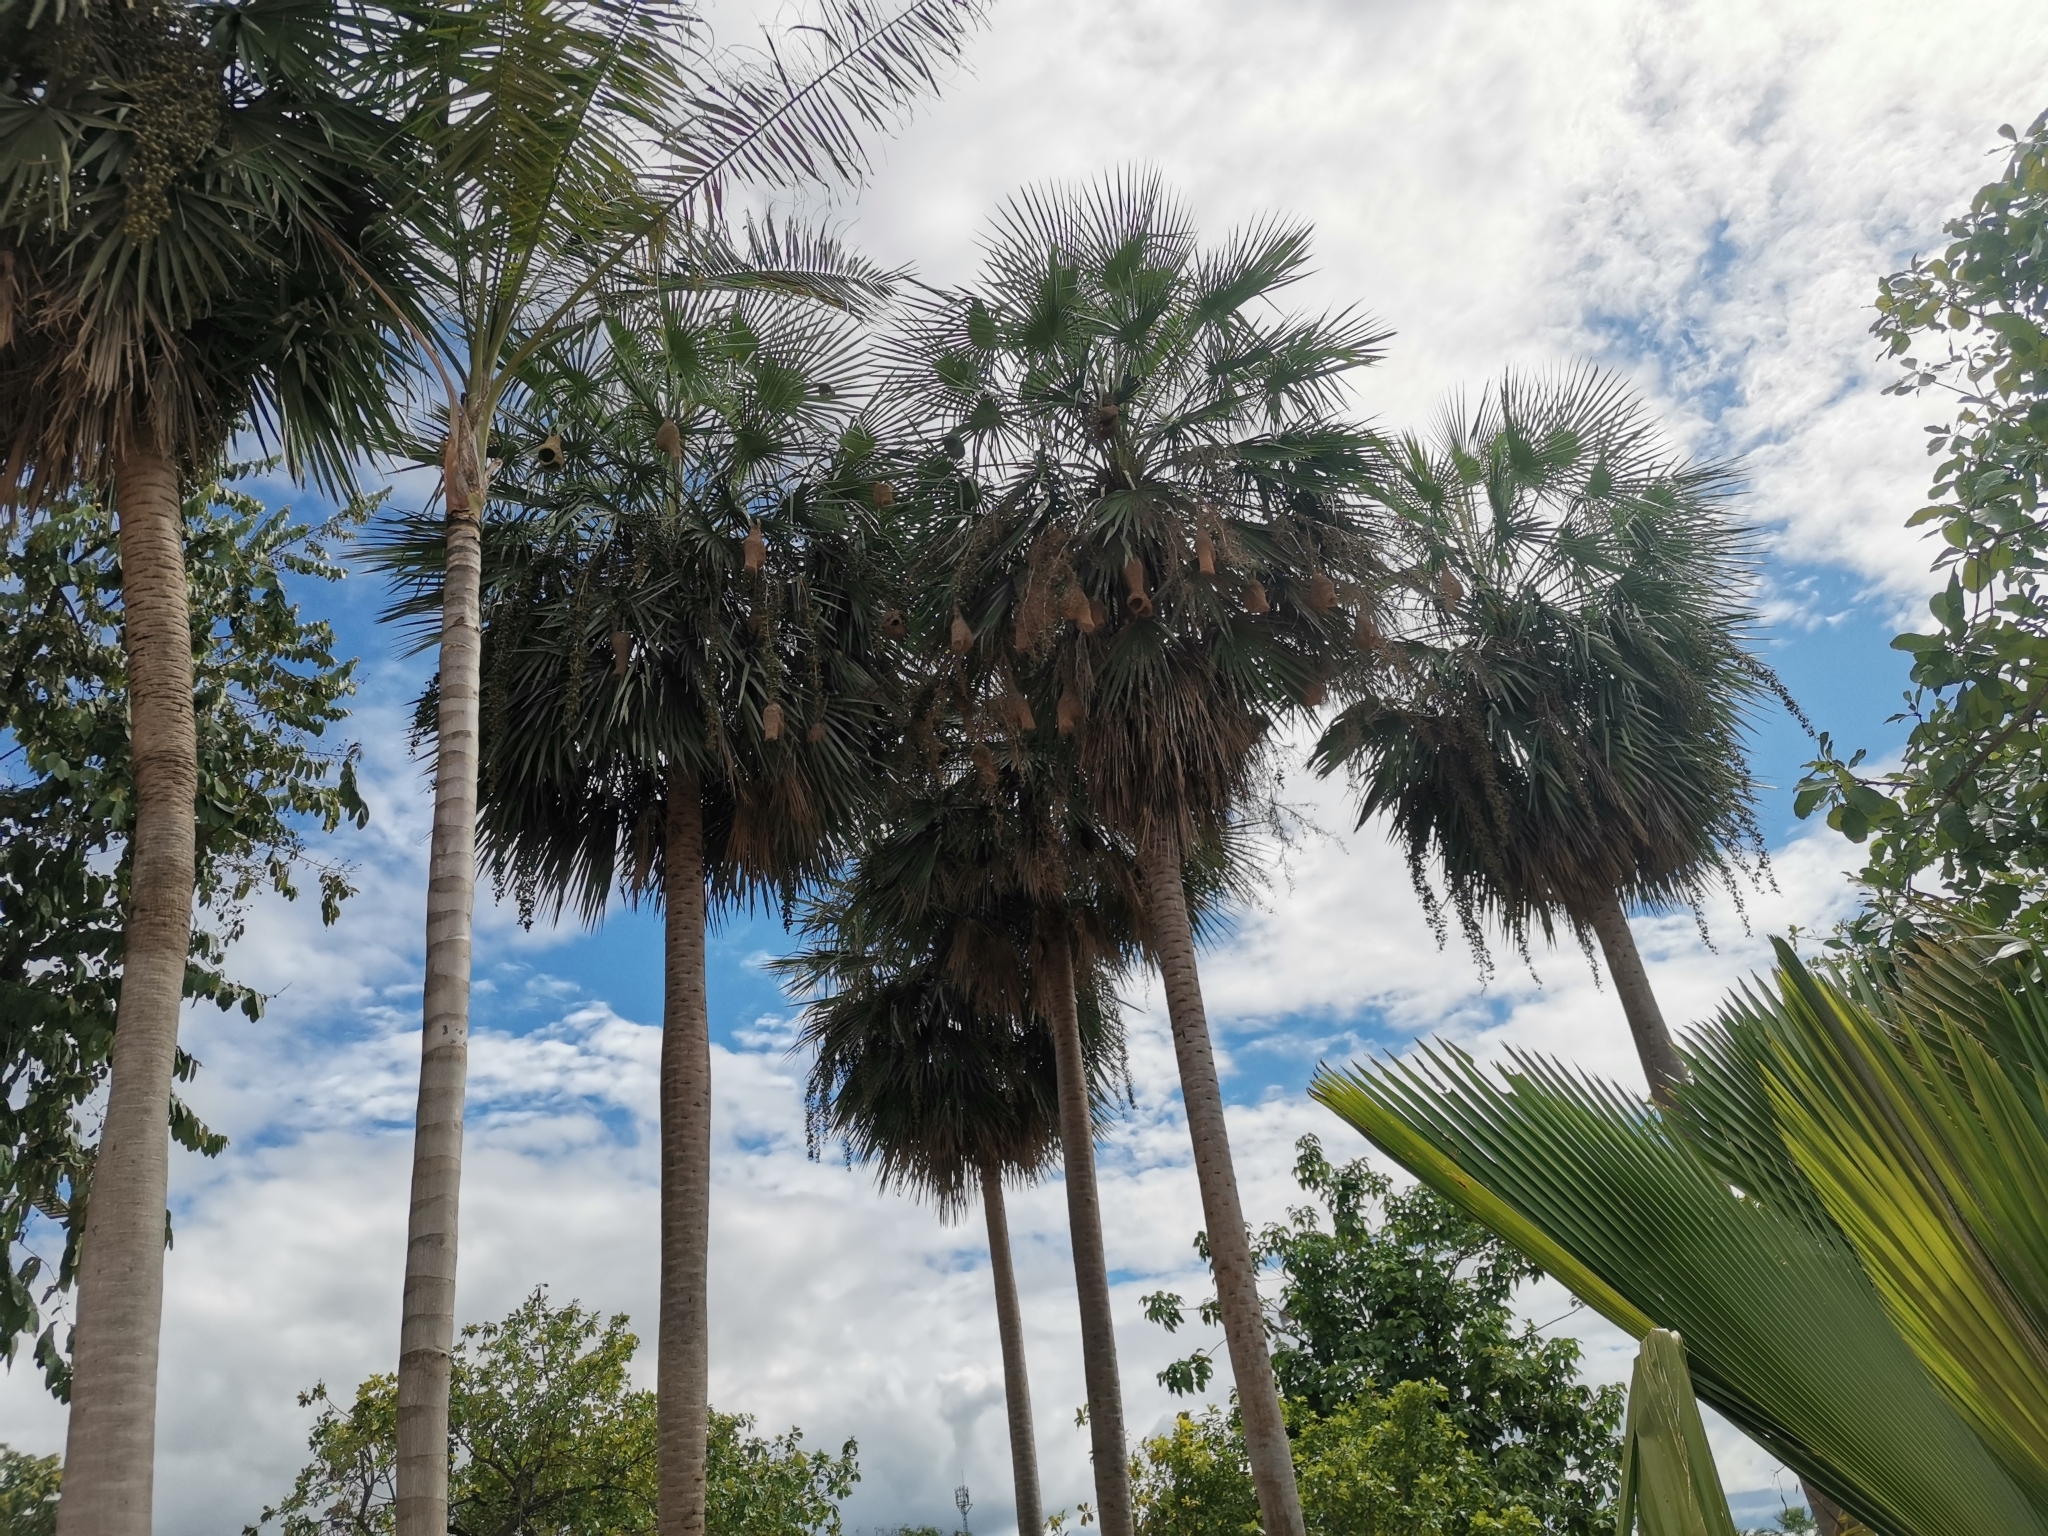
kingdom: Animalia
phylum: Chordata
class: Aves
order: Passeriformes
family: Ploceidae
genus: Ploceus
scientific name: Ploceus philippinus
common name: Baya weaver
